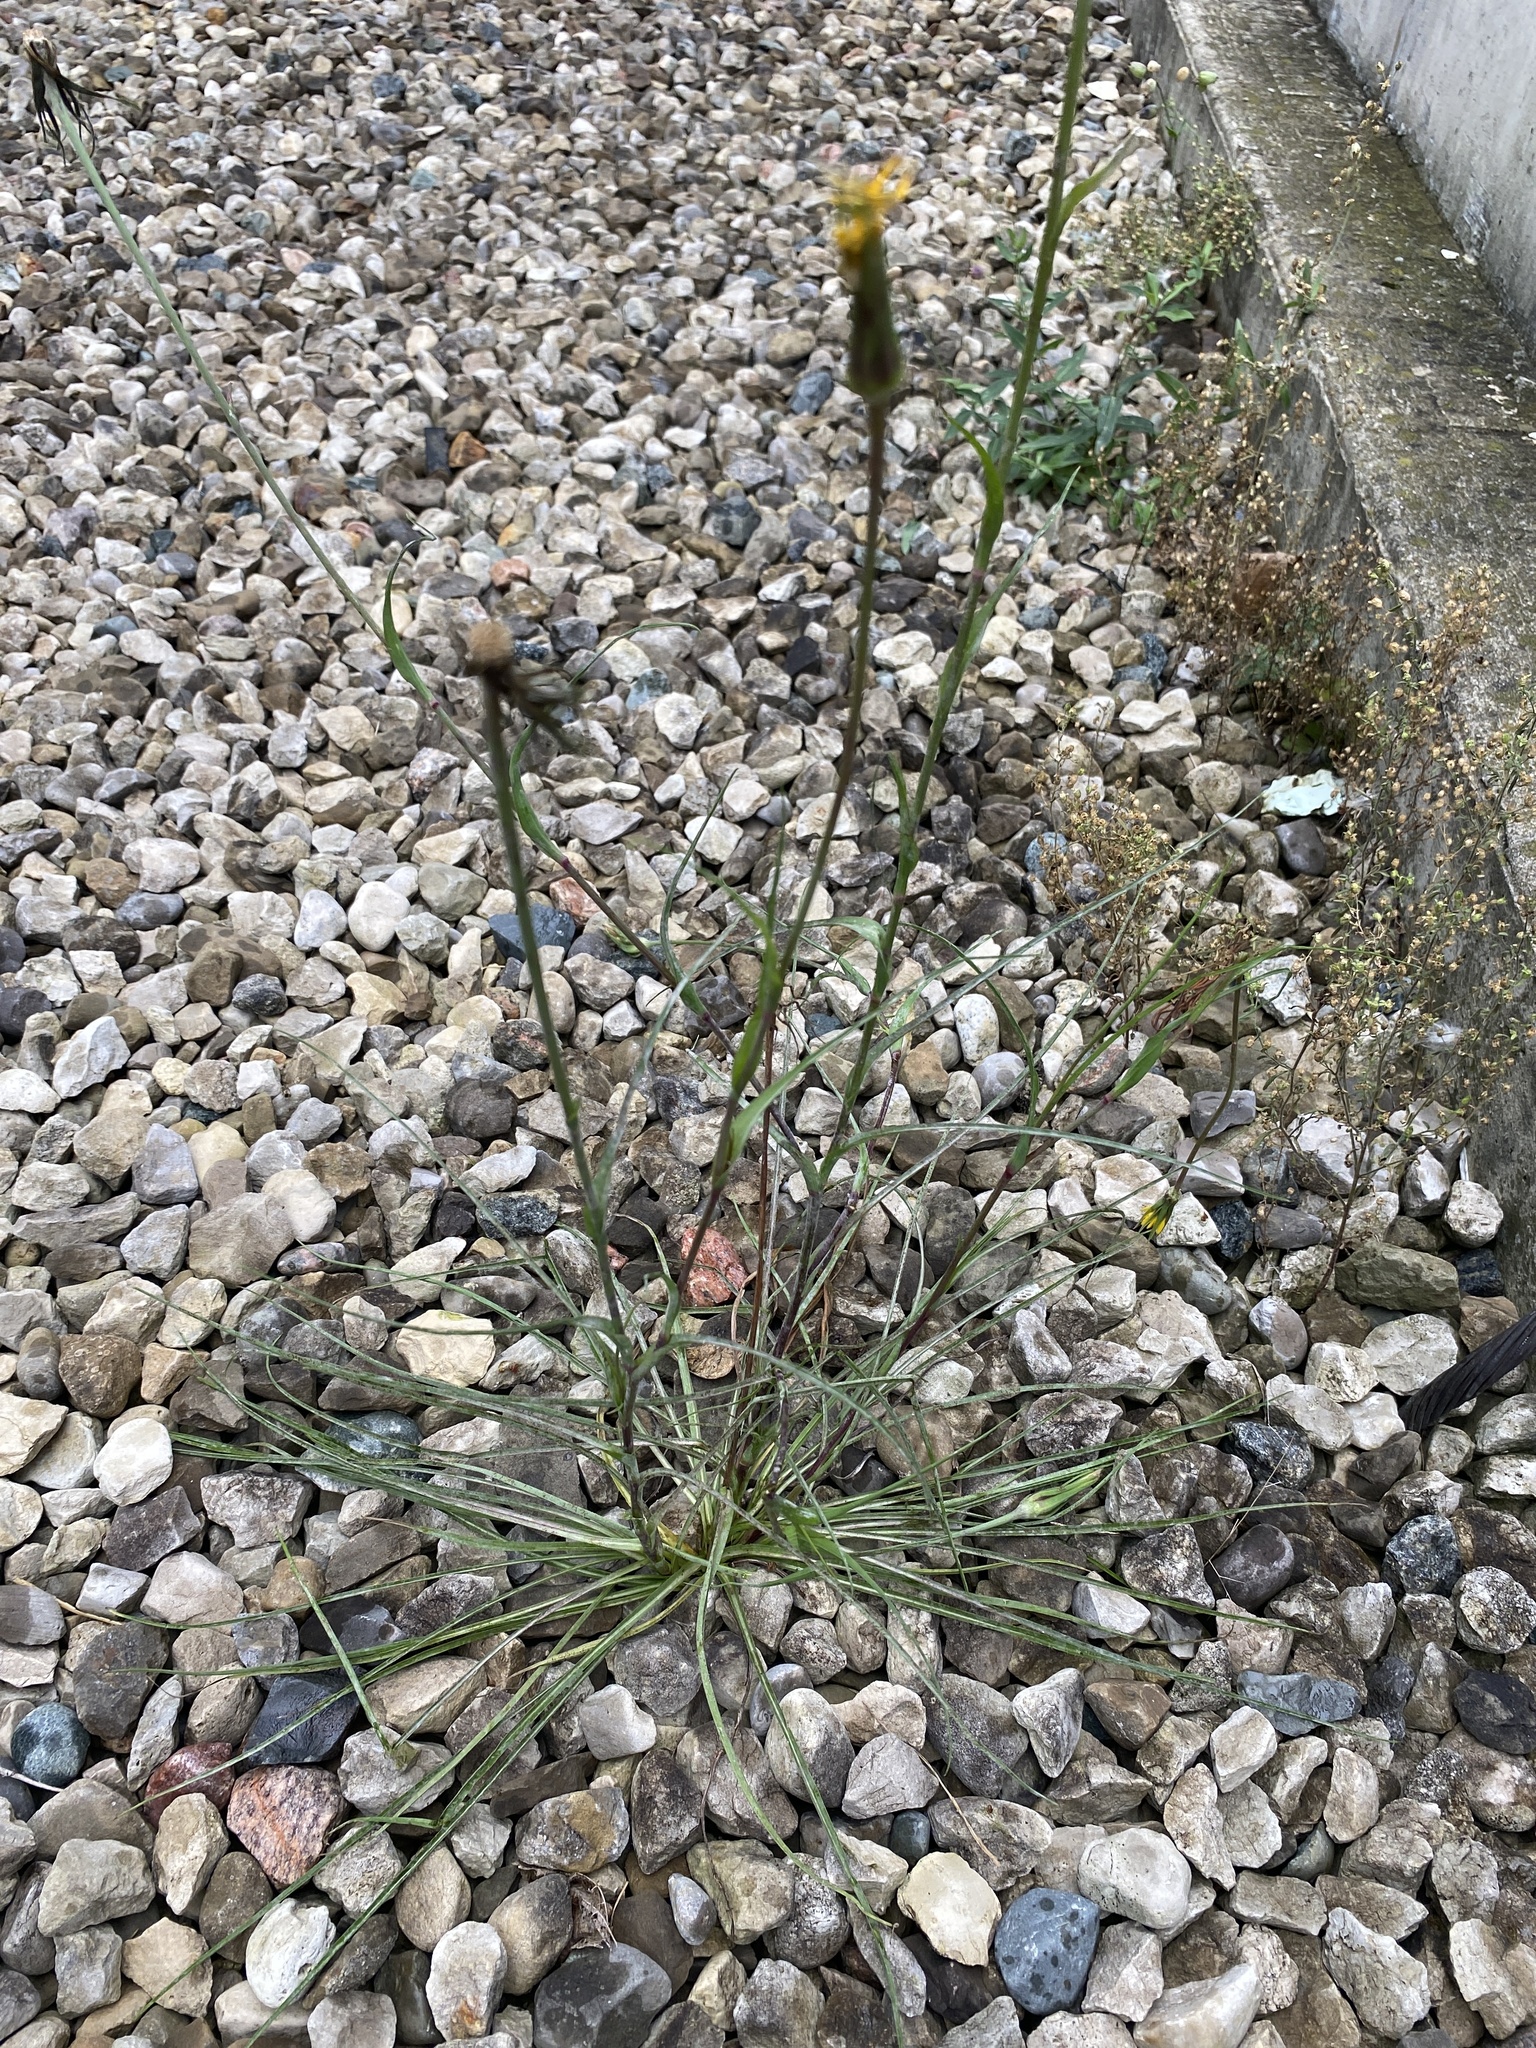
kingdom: Plantae
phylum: Tracheophyta
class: Magnoliopsida
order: Asterales
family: Asteraceae
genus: Tragopogon
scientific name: Tragopogon pratensis
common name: Goat's-beard
